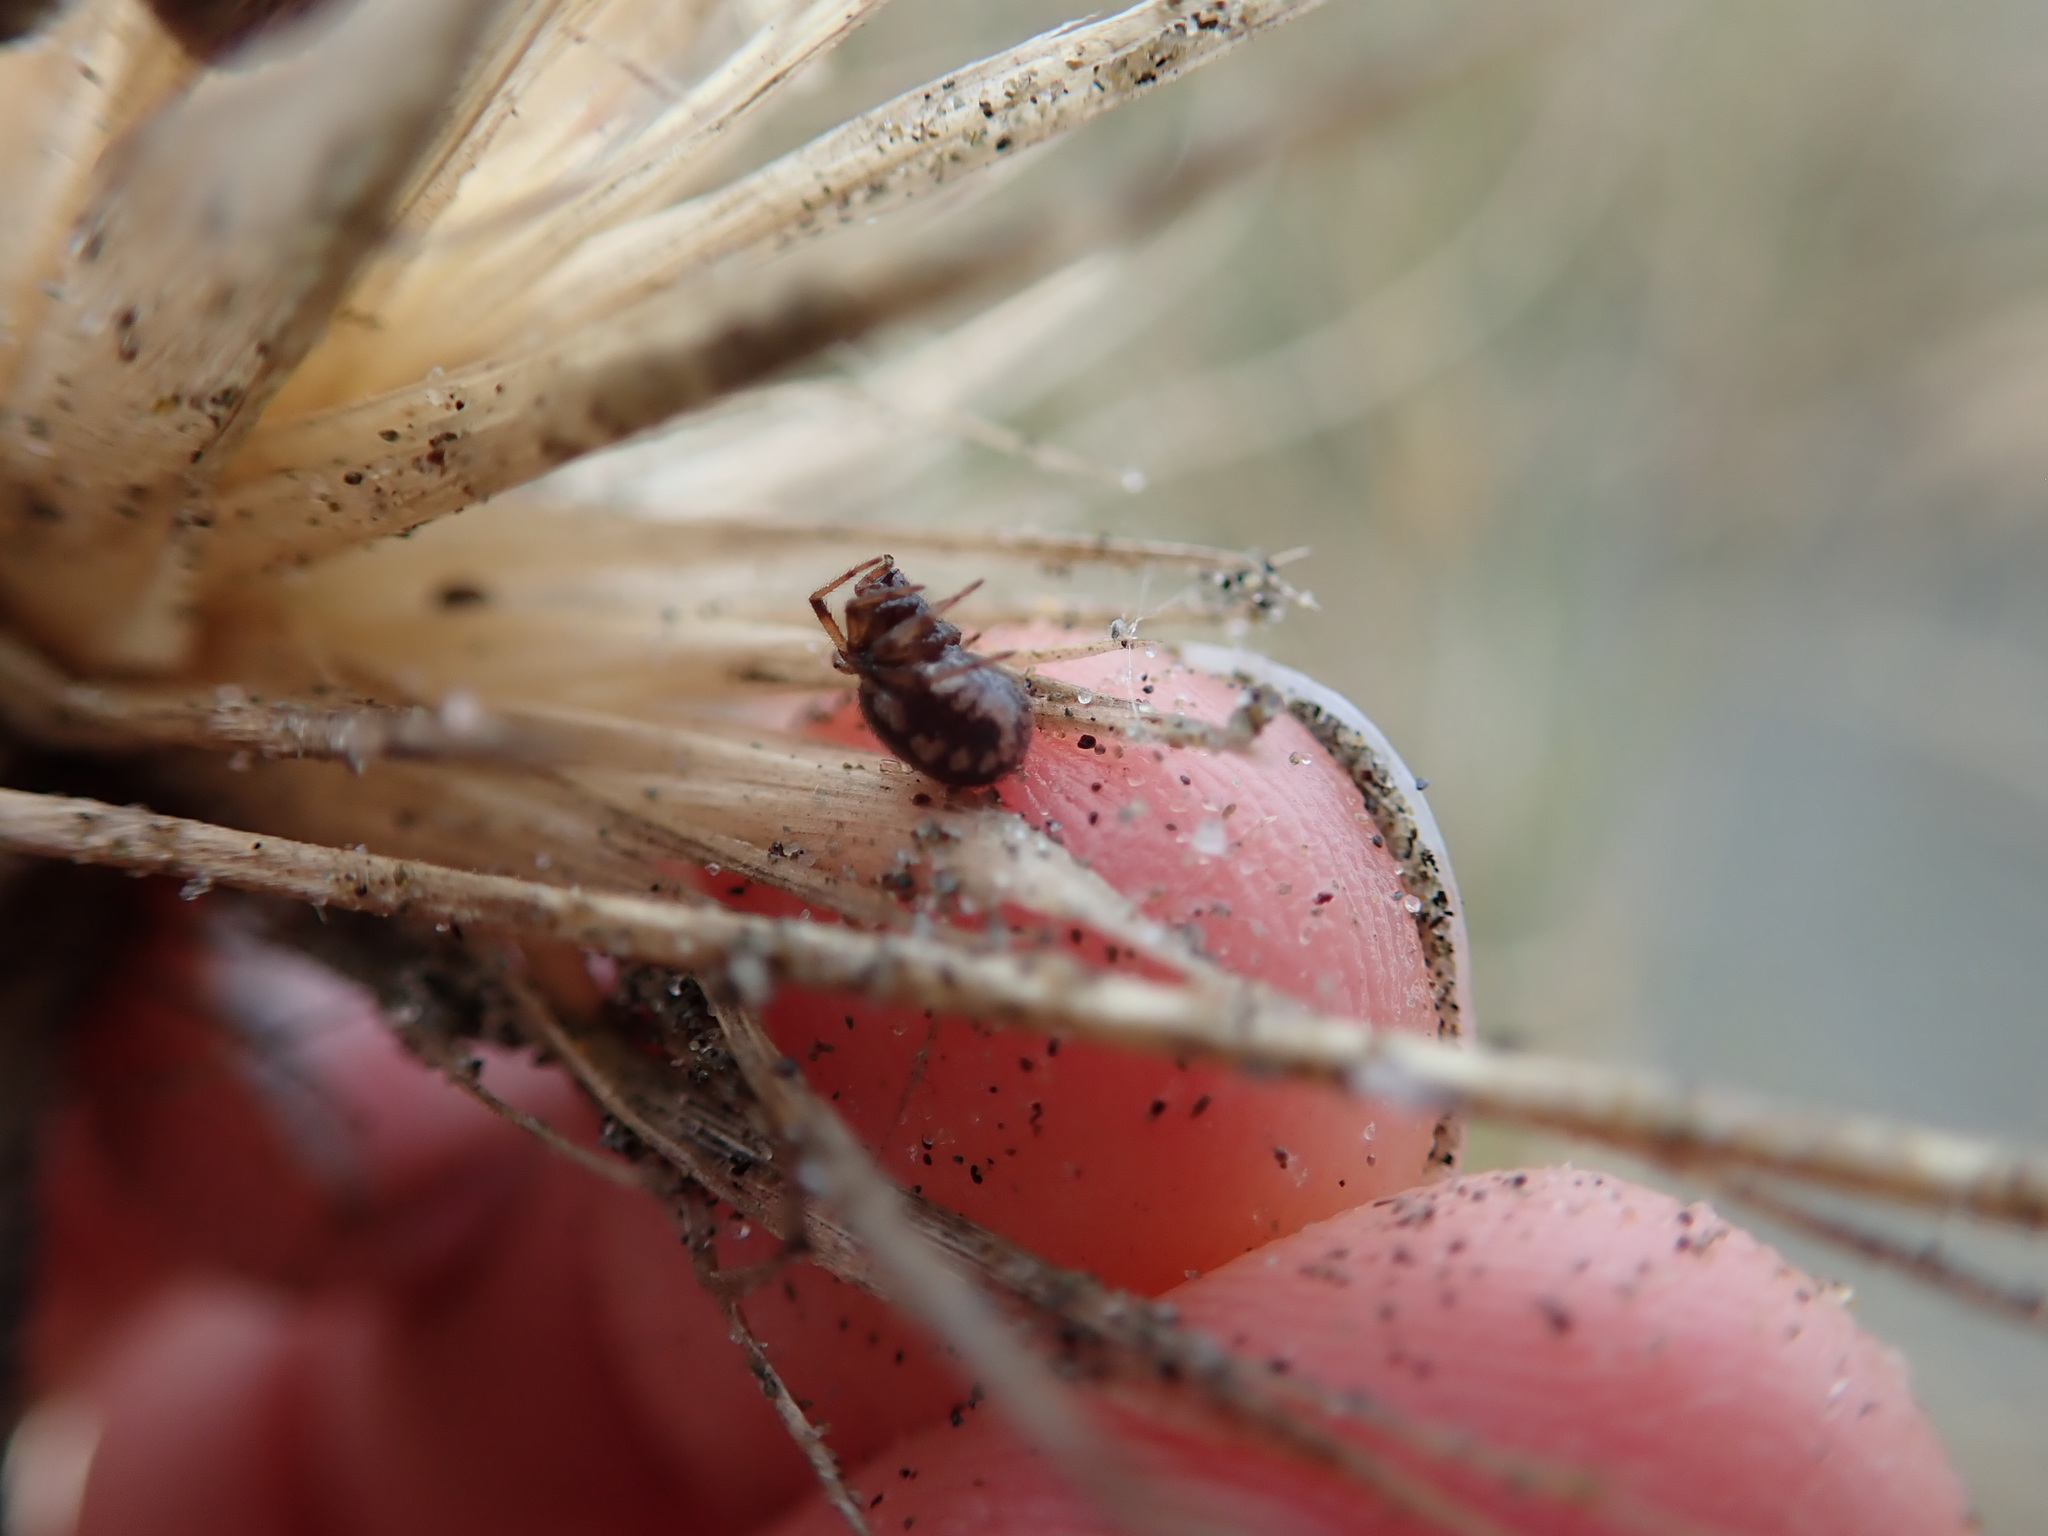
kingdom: Animalia
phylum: Arthropoda
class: Arachnida
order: Araneae
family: Theridiidae
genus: Steatoda
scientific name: Steatoda lepida
